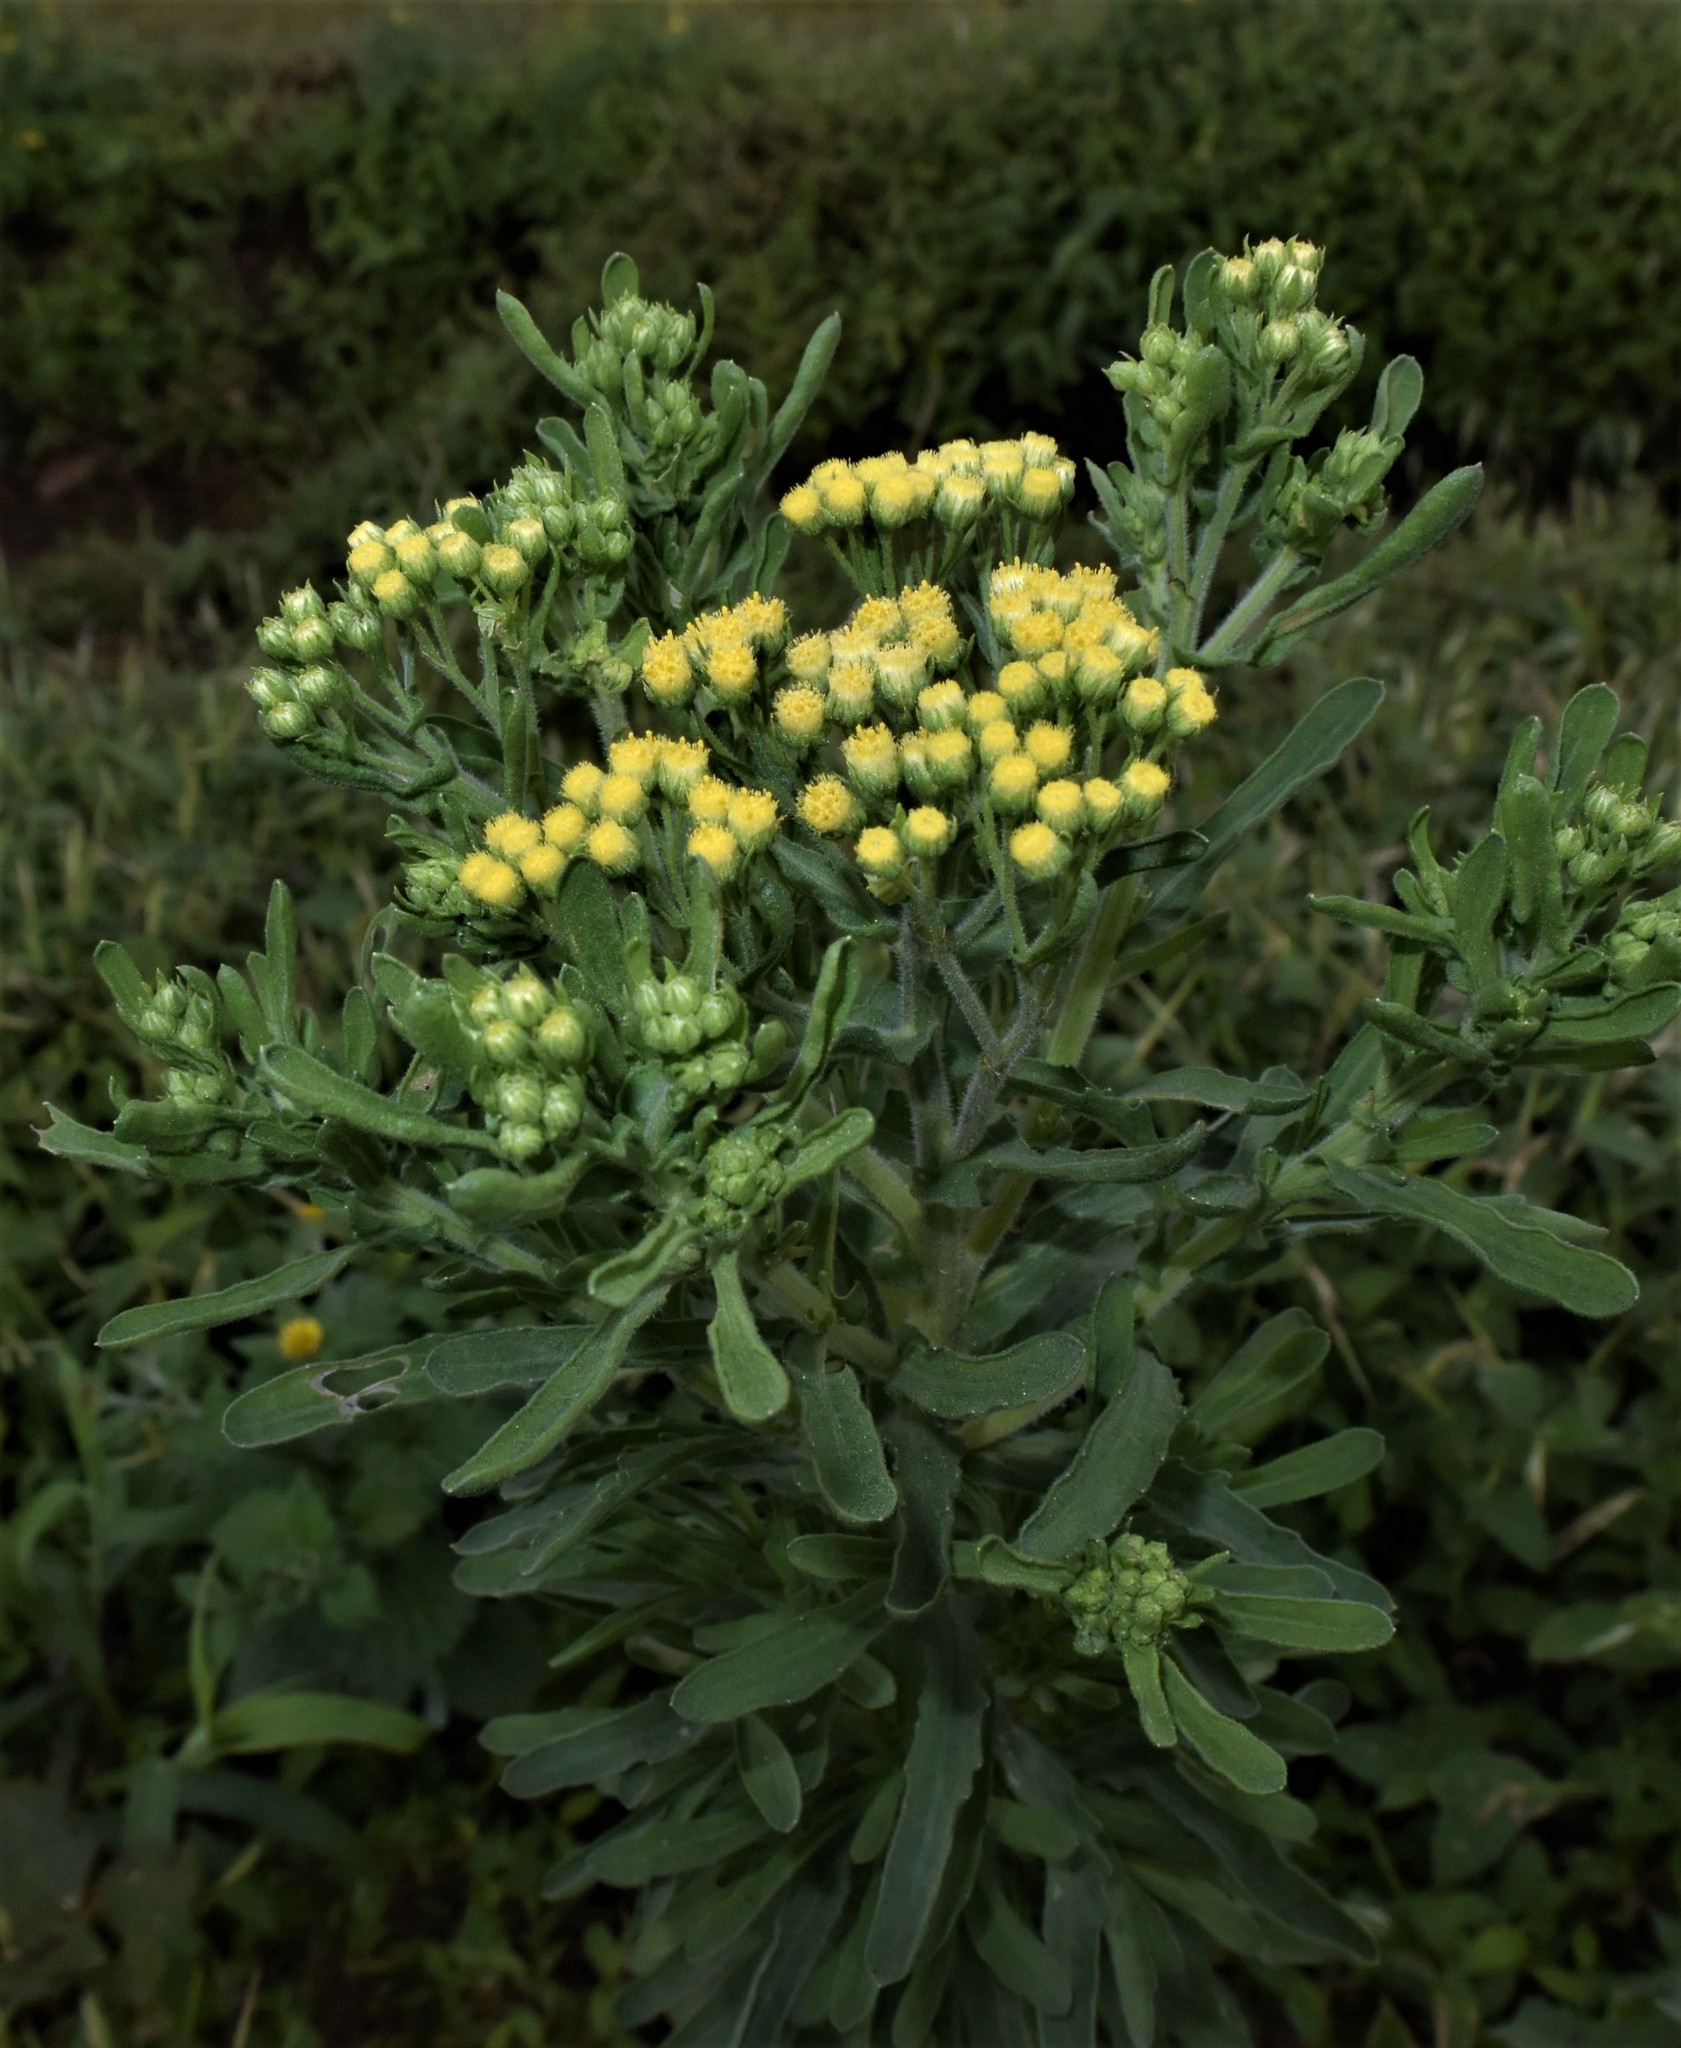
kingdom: Plantae
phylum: Tracheophyta
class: Magnoliopsida
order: Asterales
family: Asteraceae
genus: Nidorella
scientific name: Nidorella triloba
